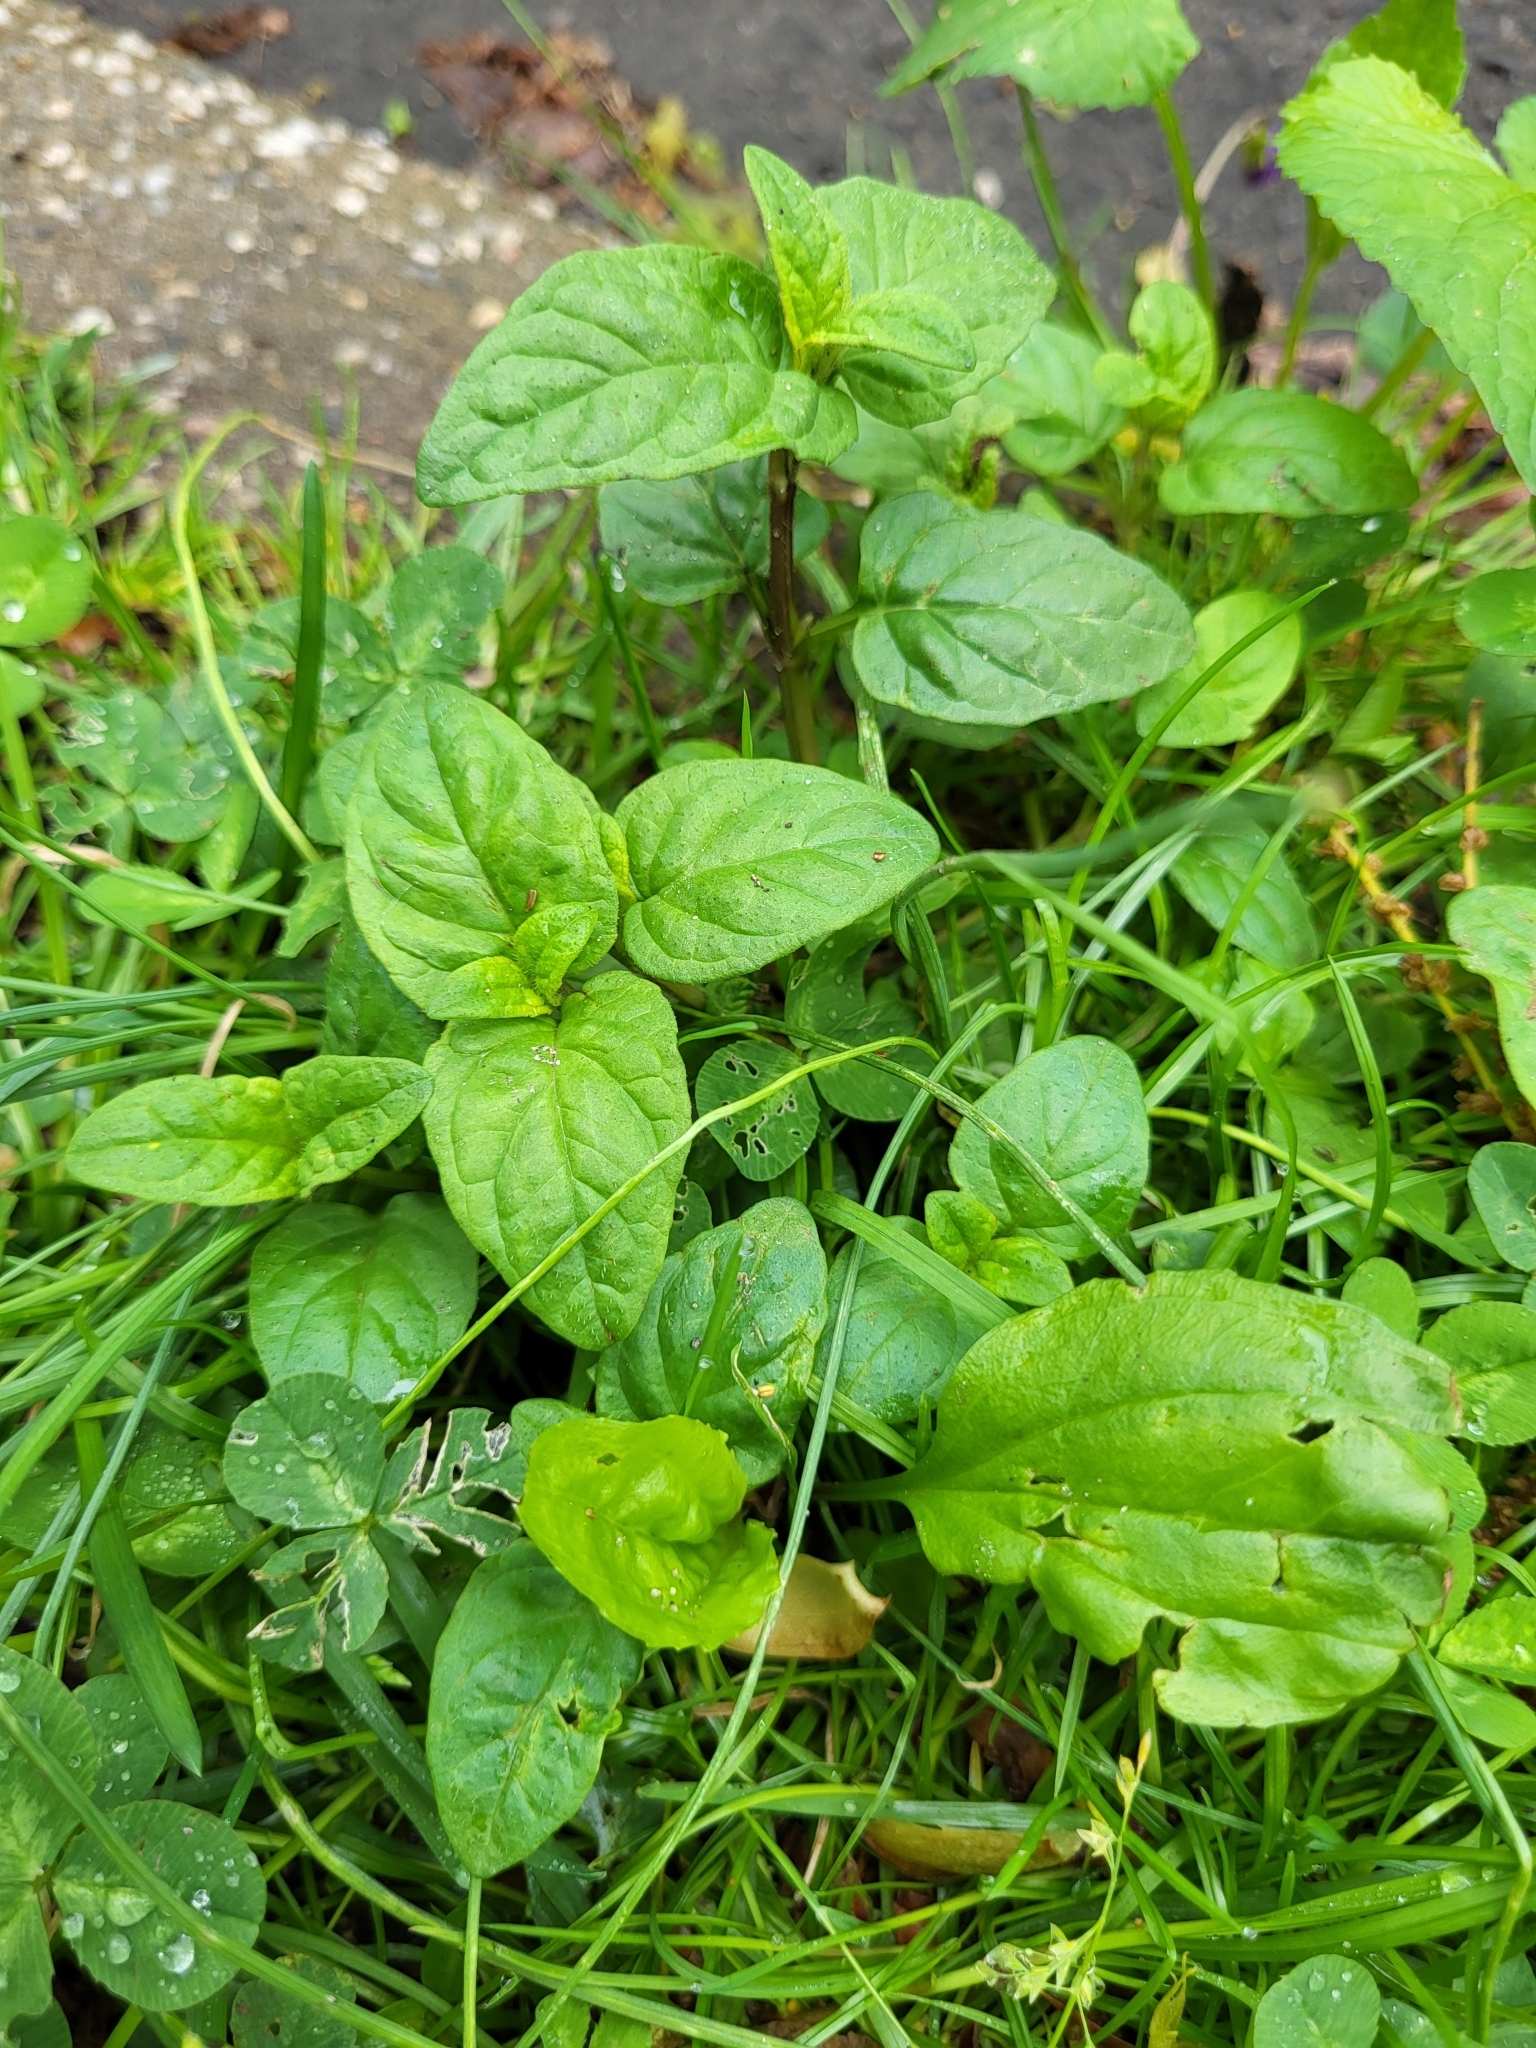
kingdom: Plantae
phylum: Tracheophyta
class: Magnoliopsida
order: Lamiales
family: Lamiaceae
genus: Prunella
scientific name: Prunella vulgaris
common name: Heal-all
